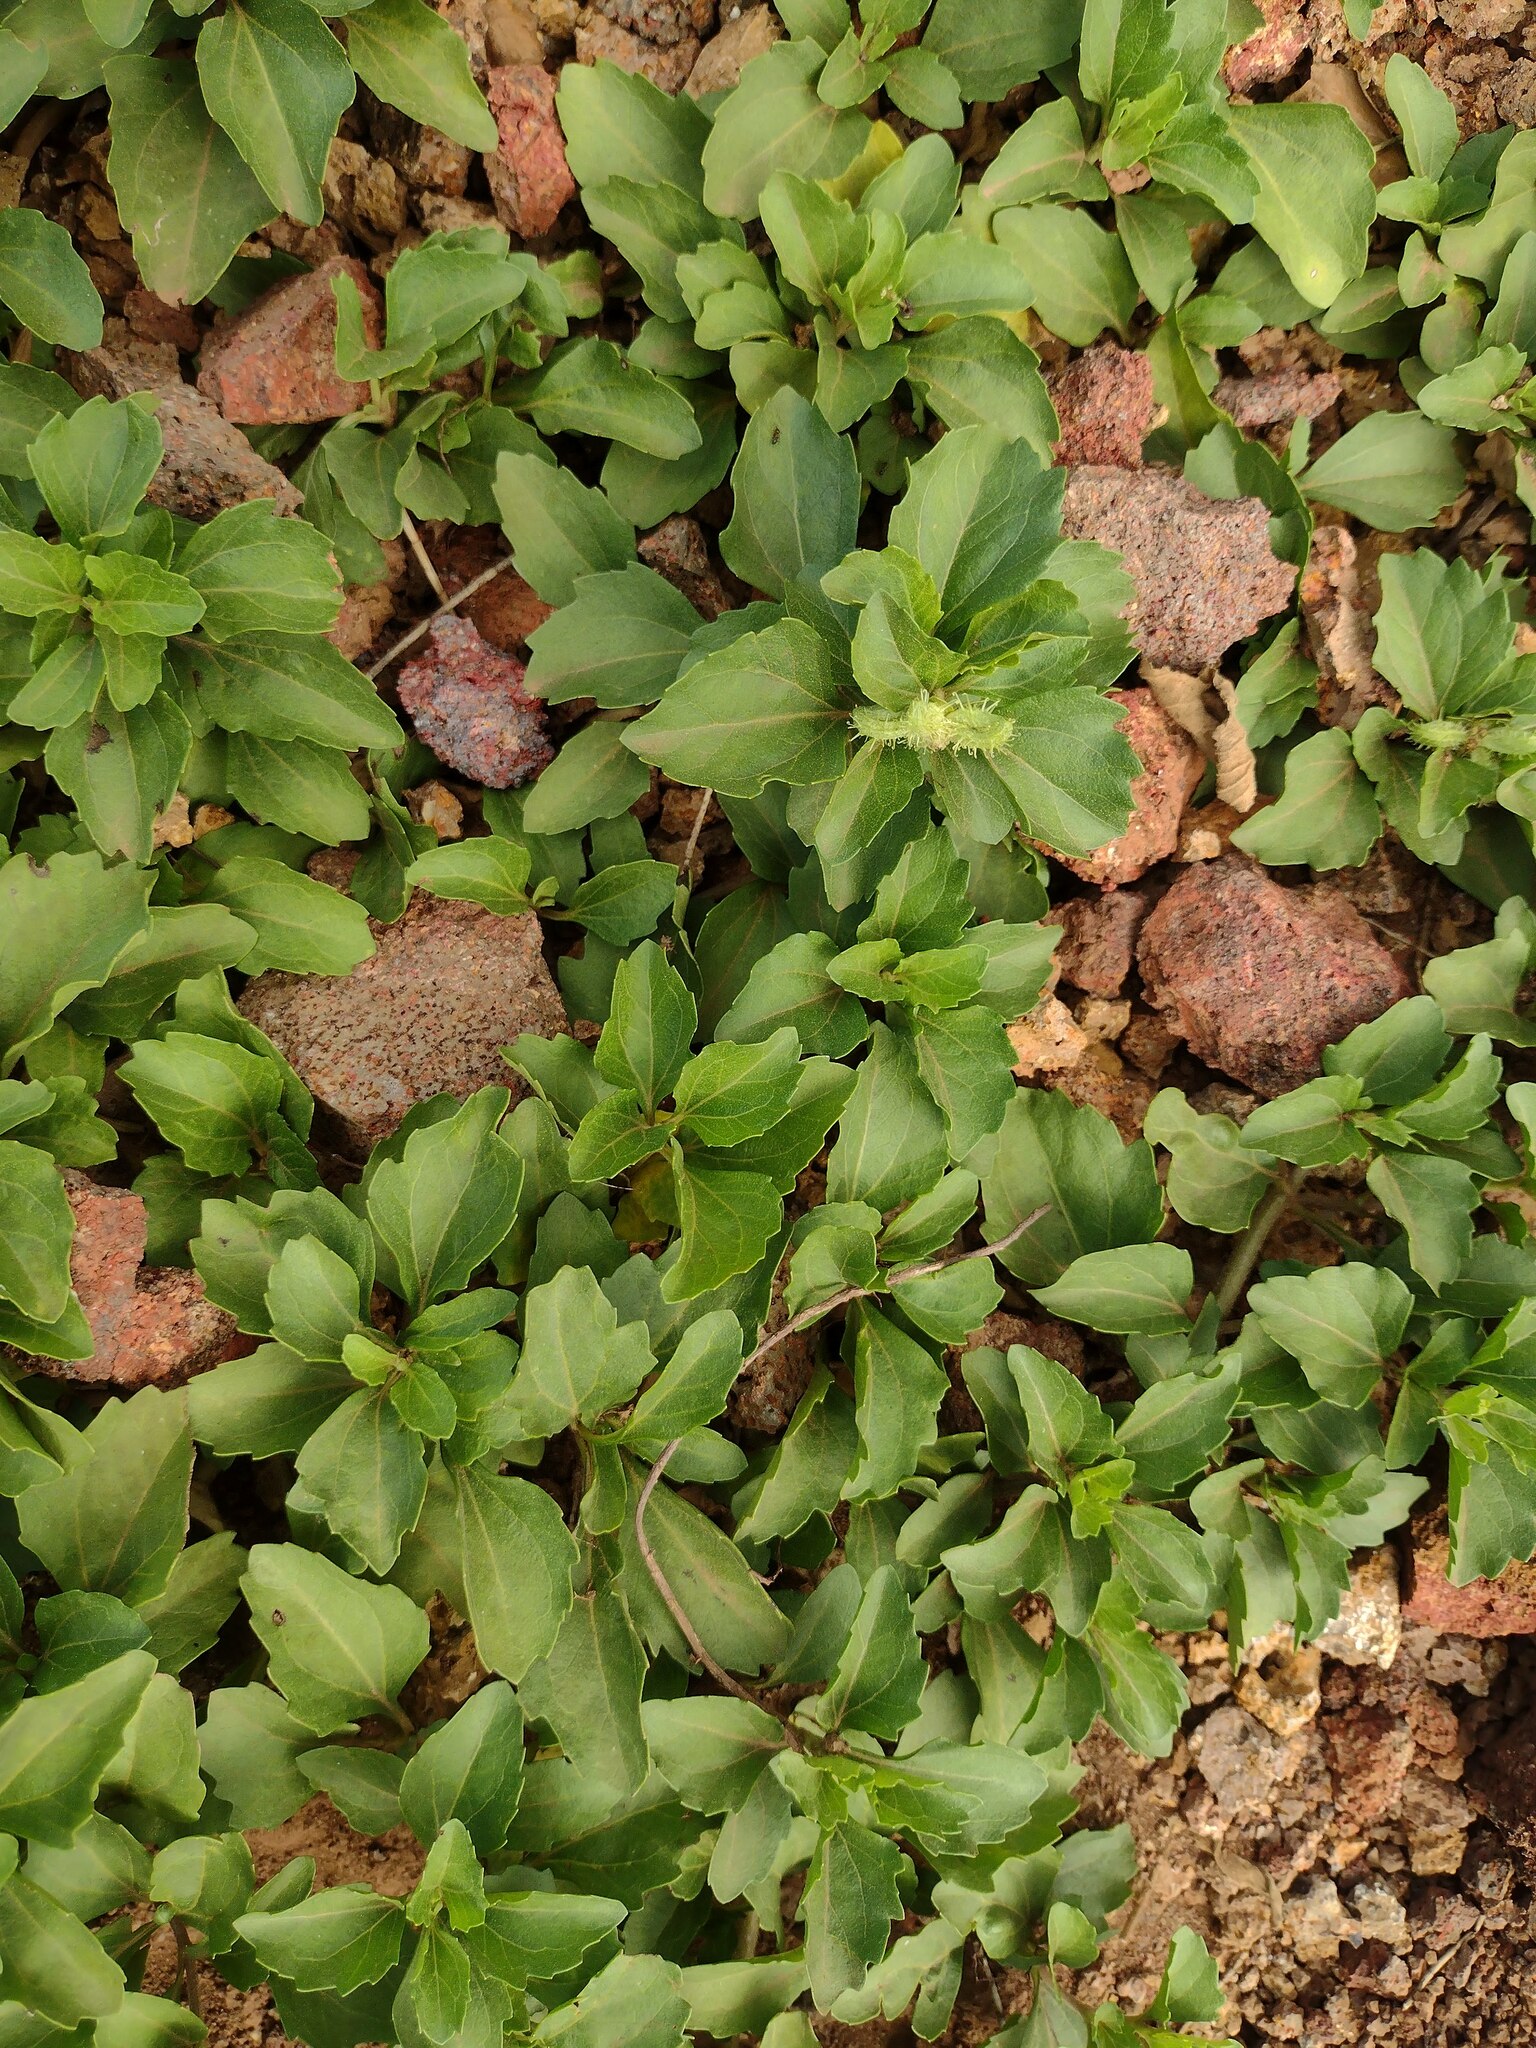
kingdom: Plantae
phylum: Tracheophyta
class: Magnoliopsida
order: Asterales
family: Asteraceae
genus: Acanthospermum
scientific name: Acanthospermum australe
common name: Paraguayan starbur
